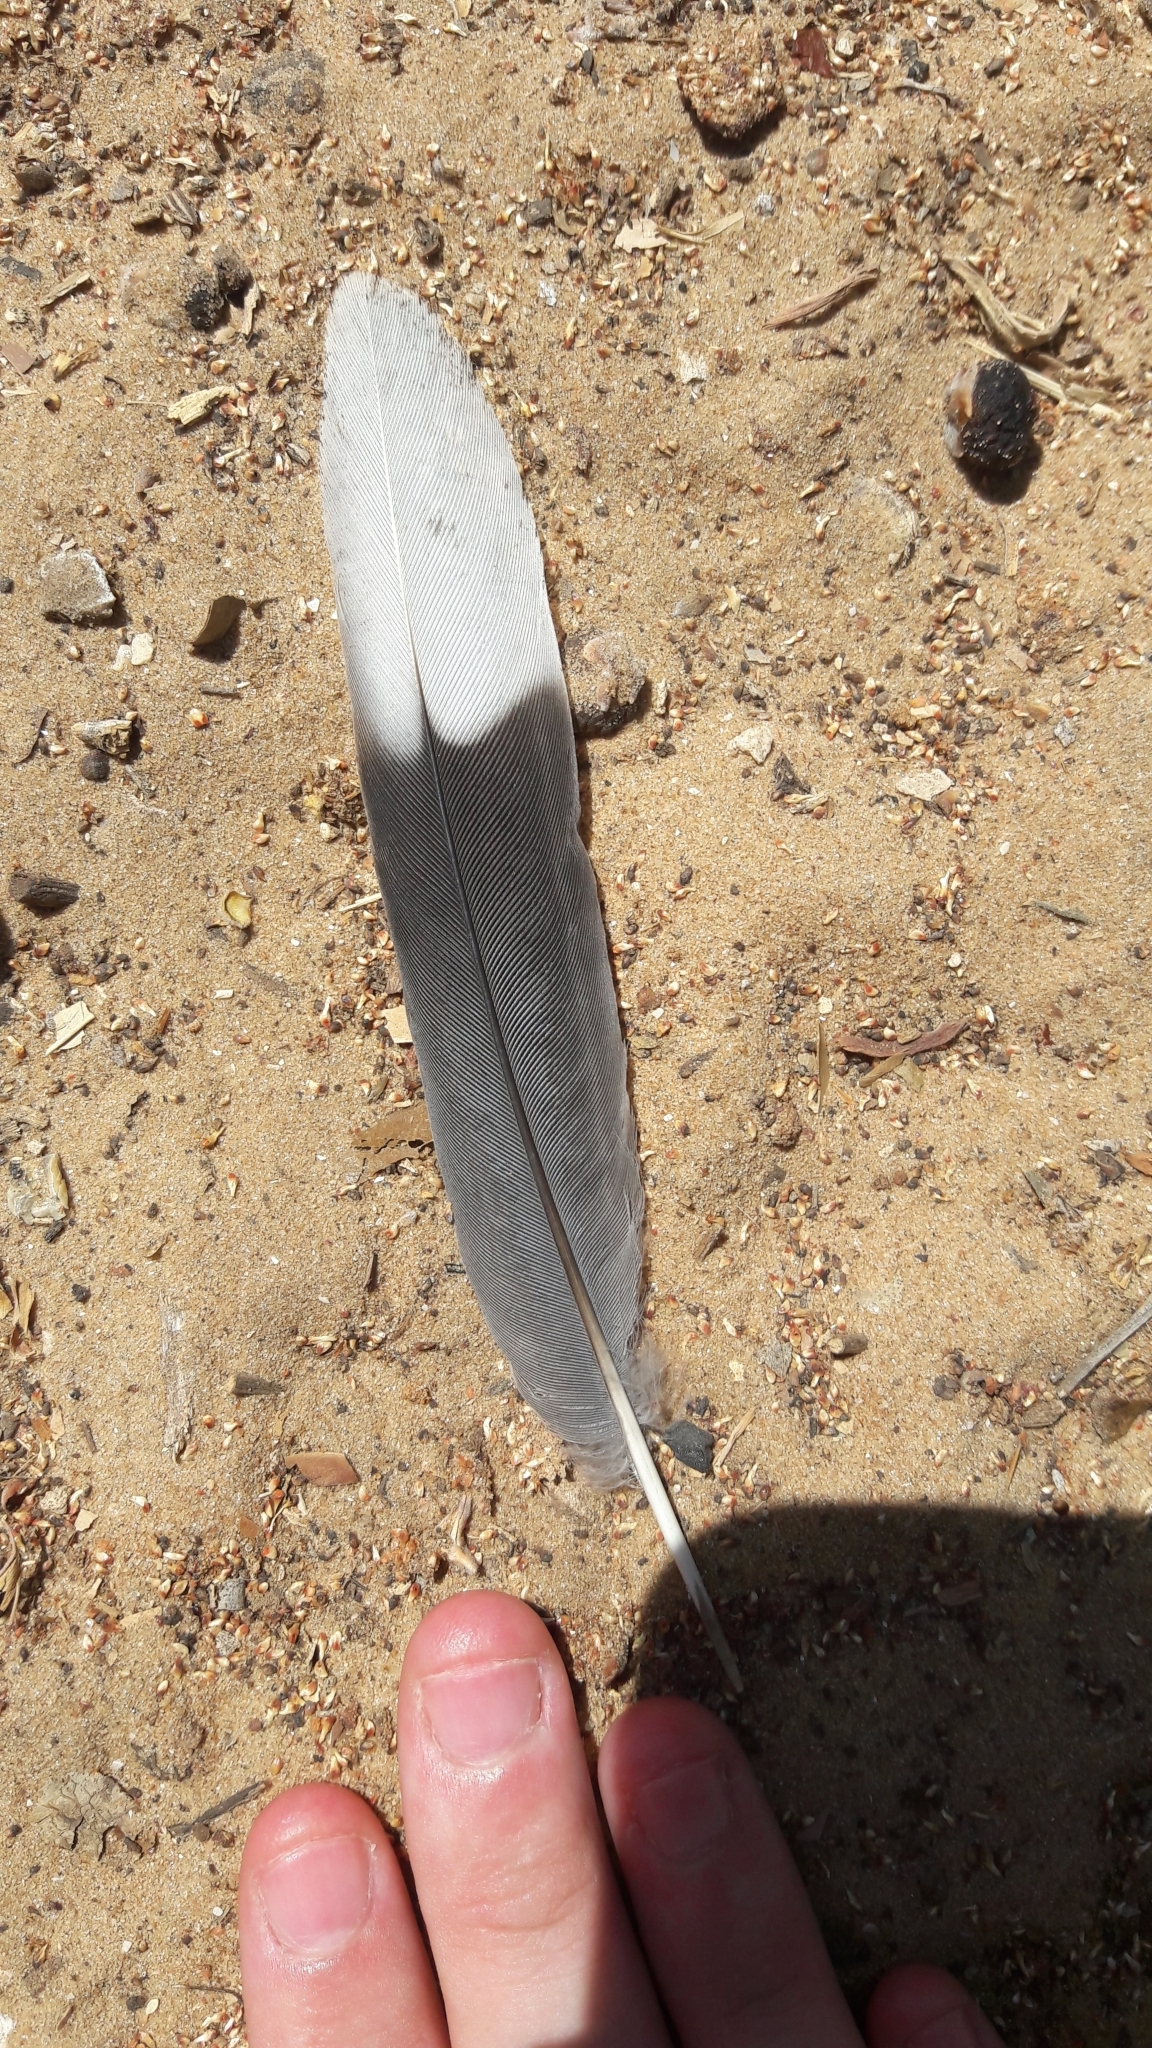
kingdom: Animalia
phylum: Chordata
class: Aves
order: Columbiformes
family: Columbidae
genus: Spilopelia
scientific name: Spilopelia senegalensis
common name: Laughing dove
